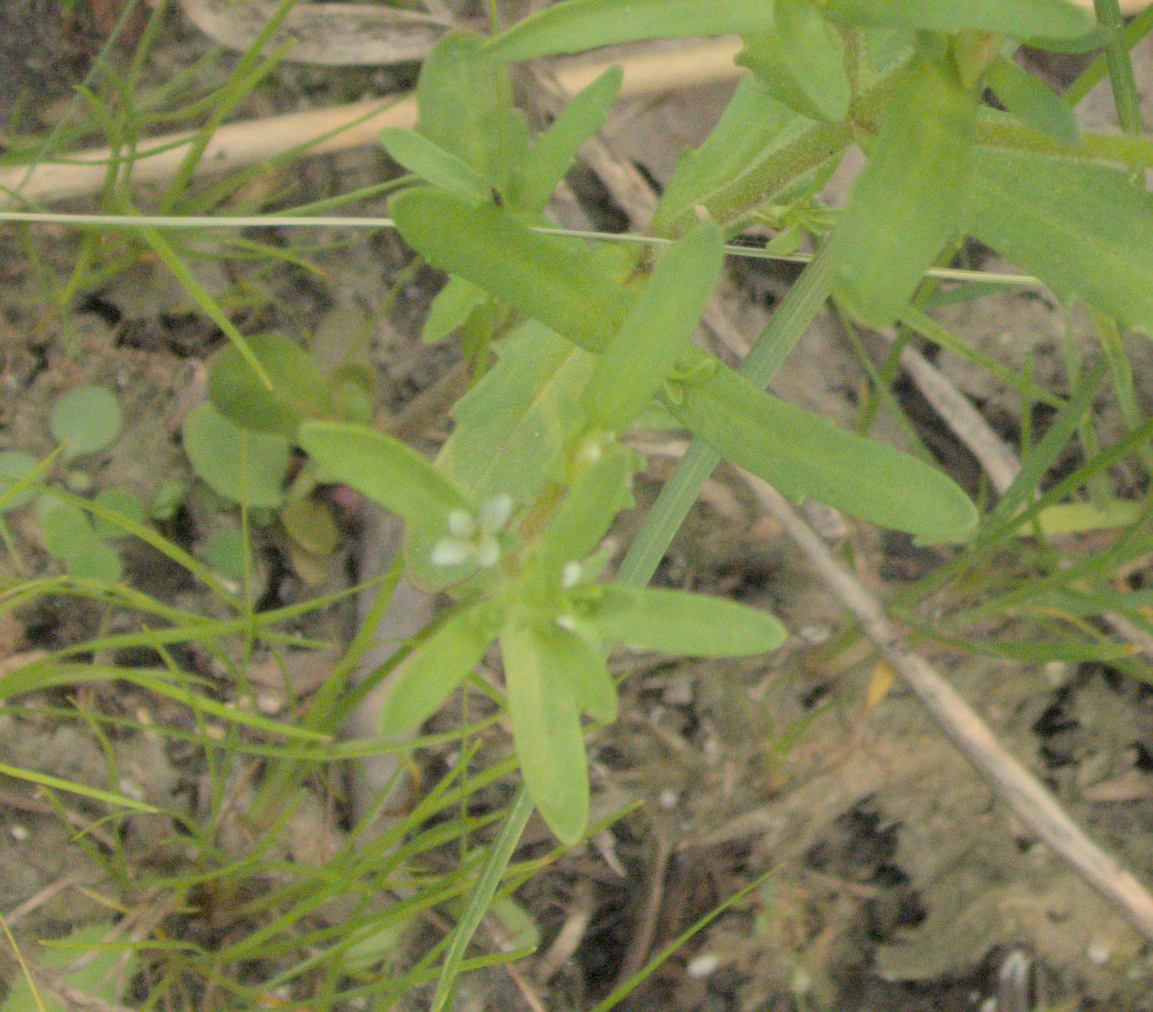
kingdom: Plantae
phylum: Tracheophyta
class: Magnoliopsida
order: Lamiales
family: Plantaginaceae
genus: Veronica
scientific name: Veronica peregrina
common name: Neckweed
